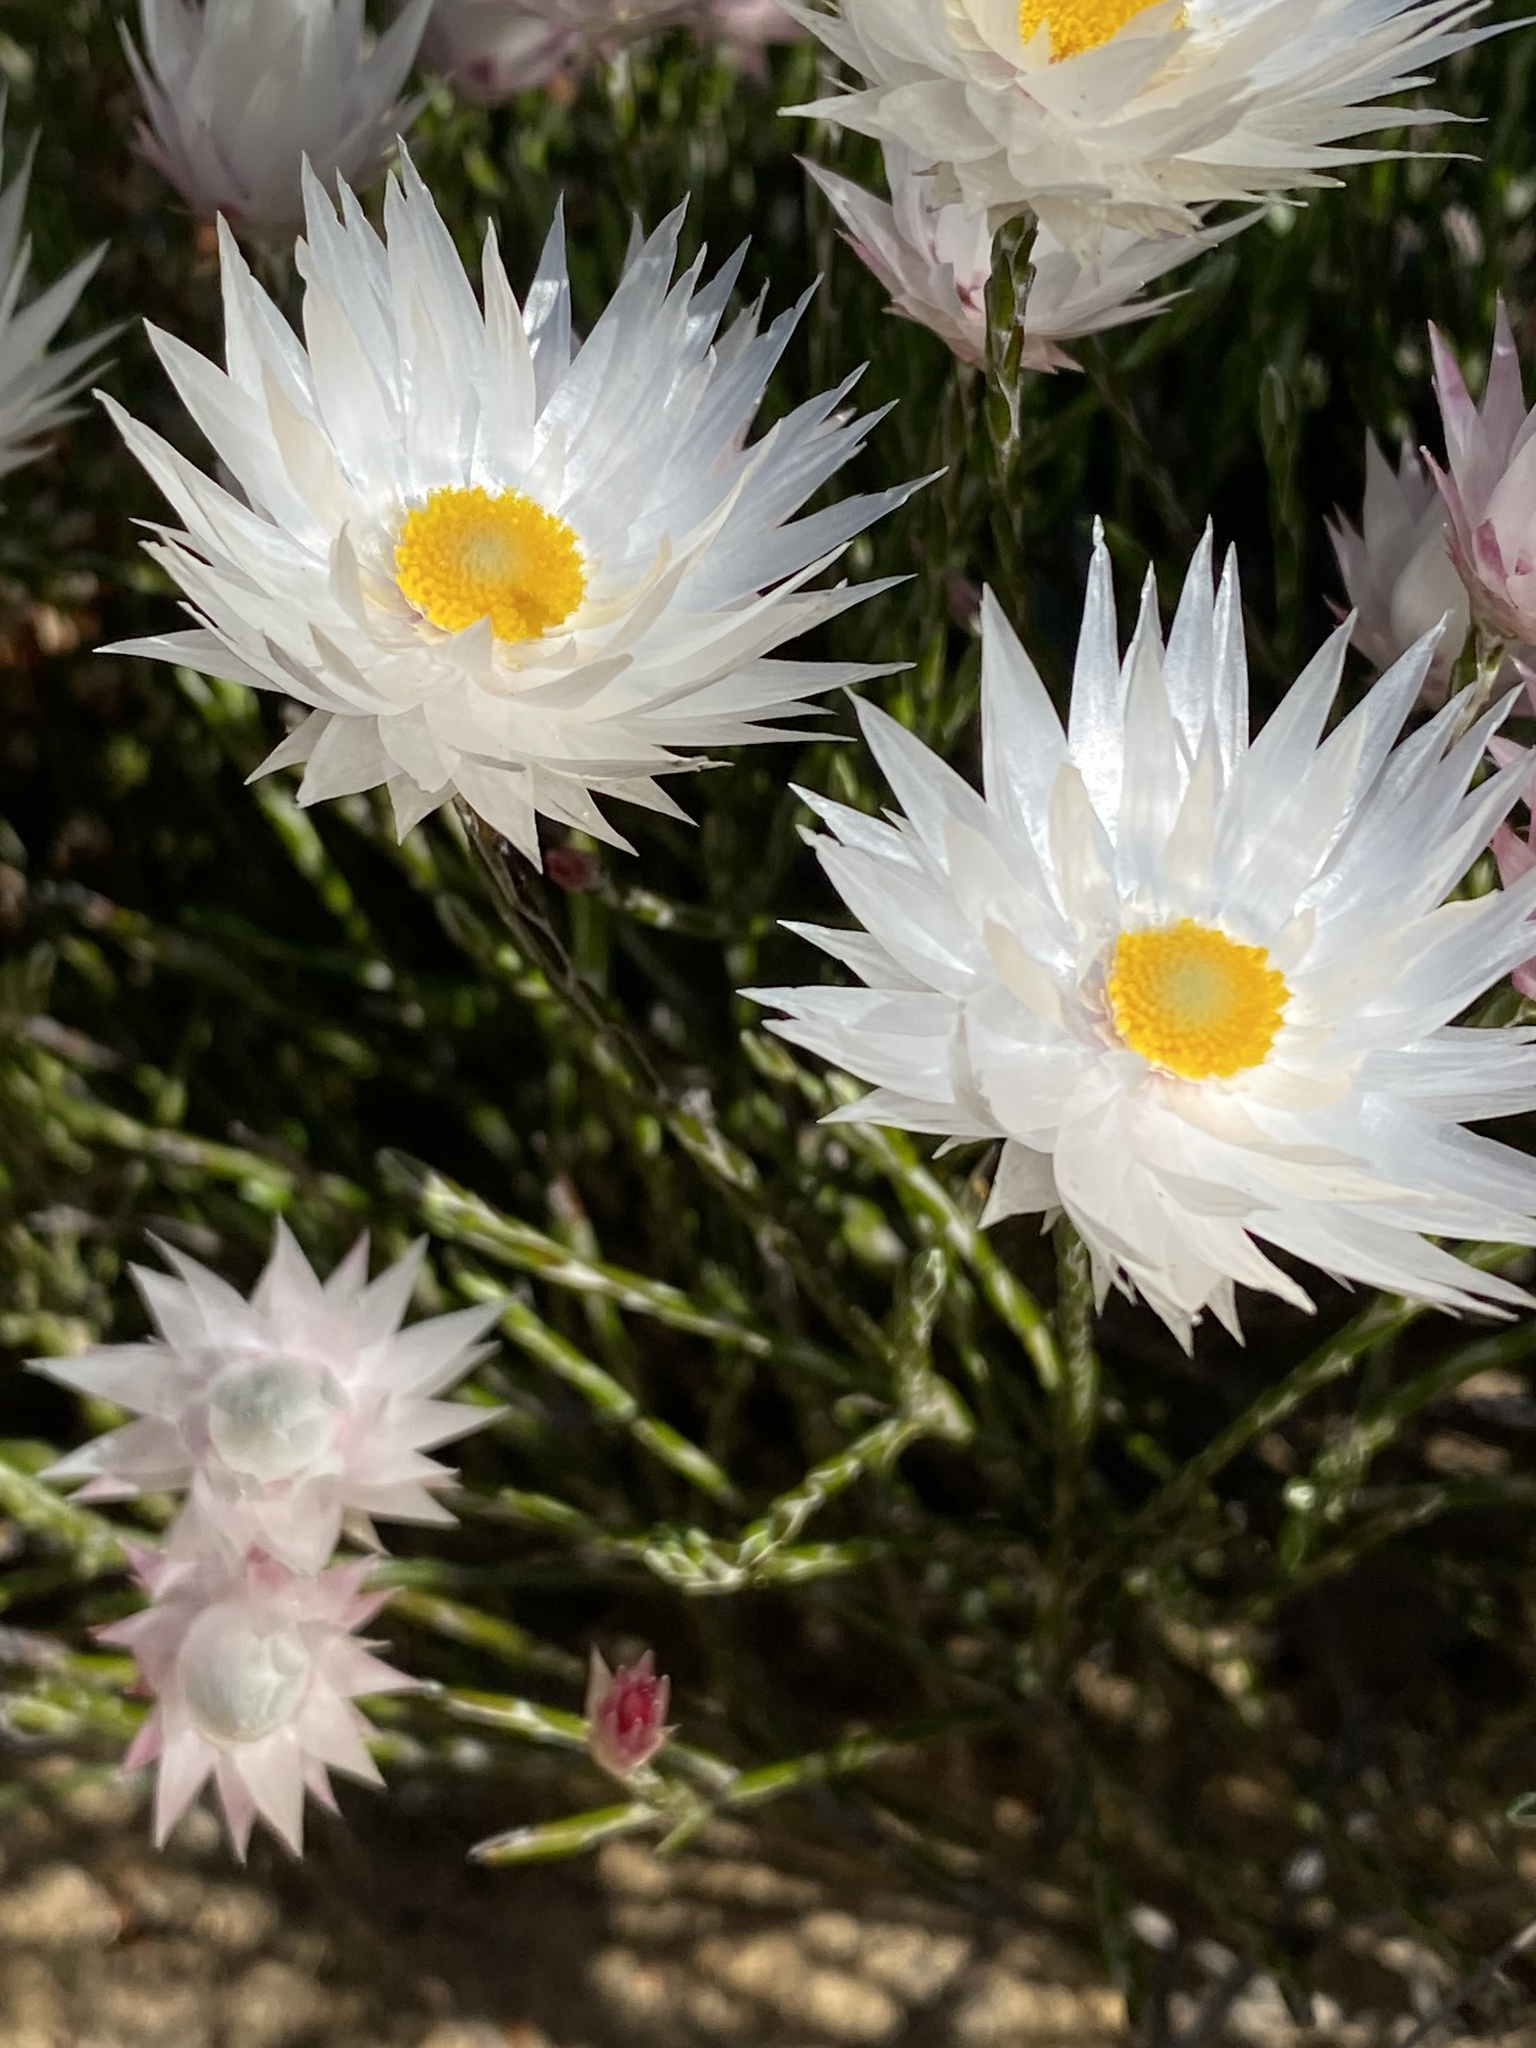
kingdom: Plantae
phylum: Tracheophyta
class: Magnoliopsida
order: Asterales
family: Asteraceae
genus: Edmondia
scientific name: Edmondia sesamoides
